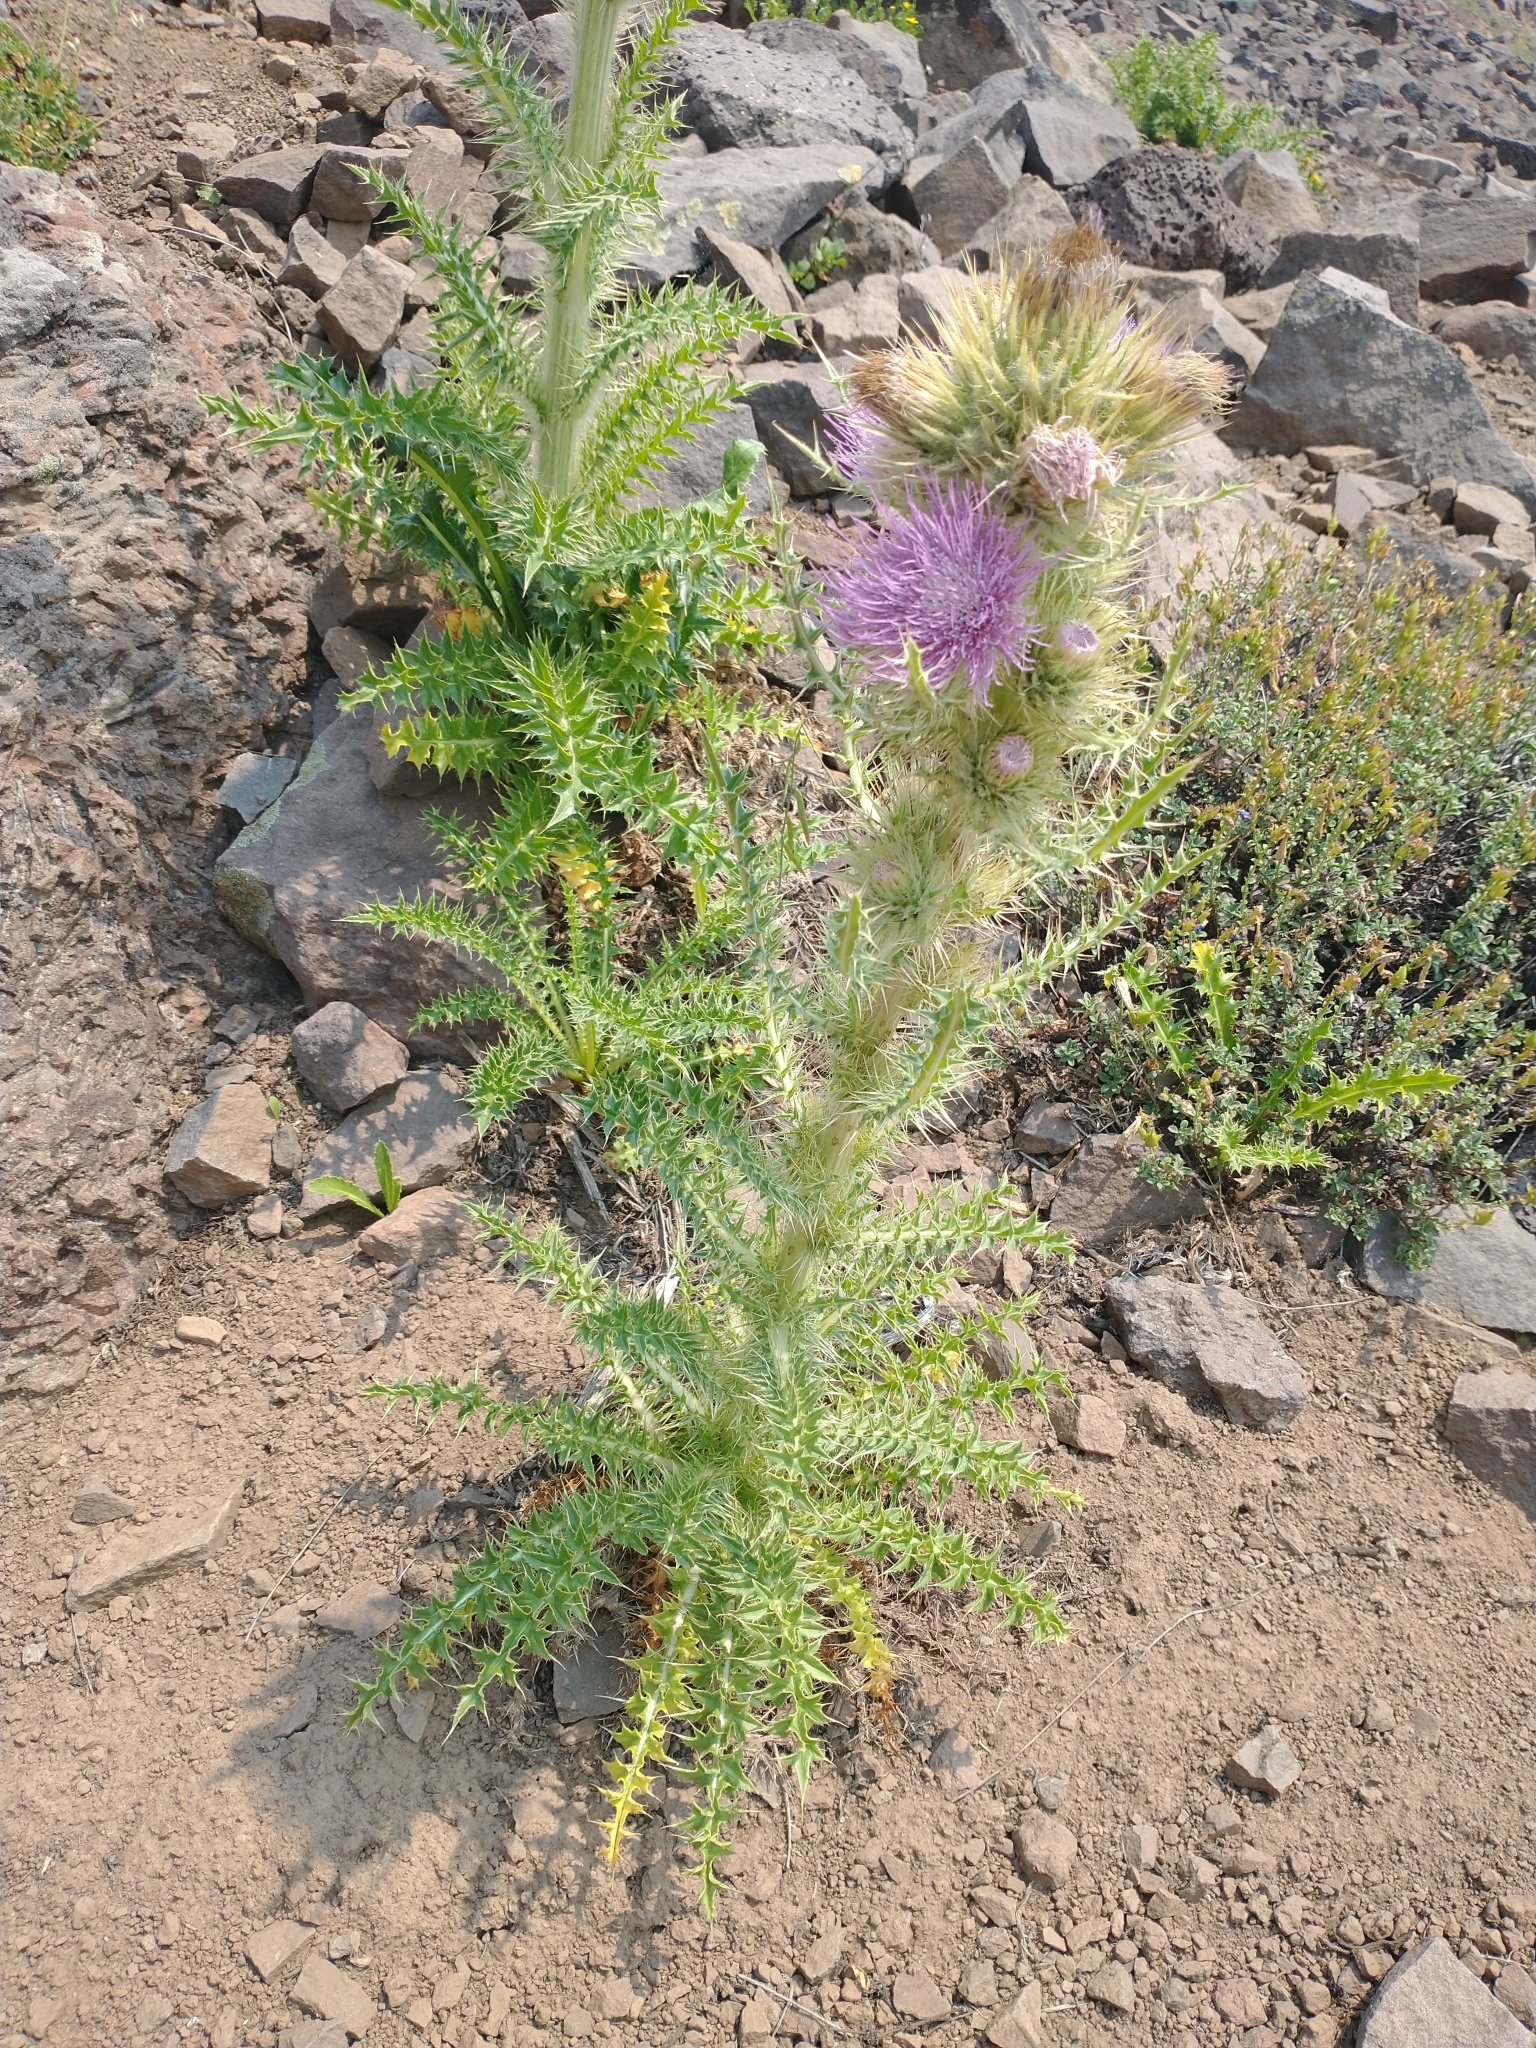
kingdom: Plantae
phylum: Tracheophyta
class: Magnoliopsida
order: Asterales
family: Asteraceae
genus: Cirsium
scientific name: Cirsium peckii
